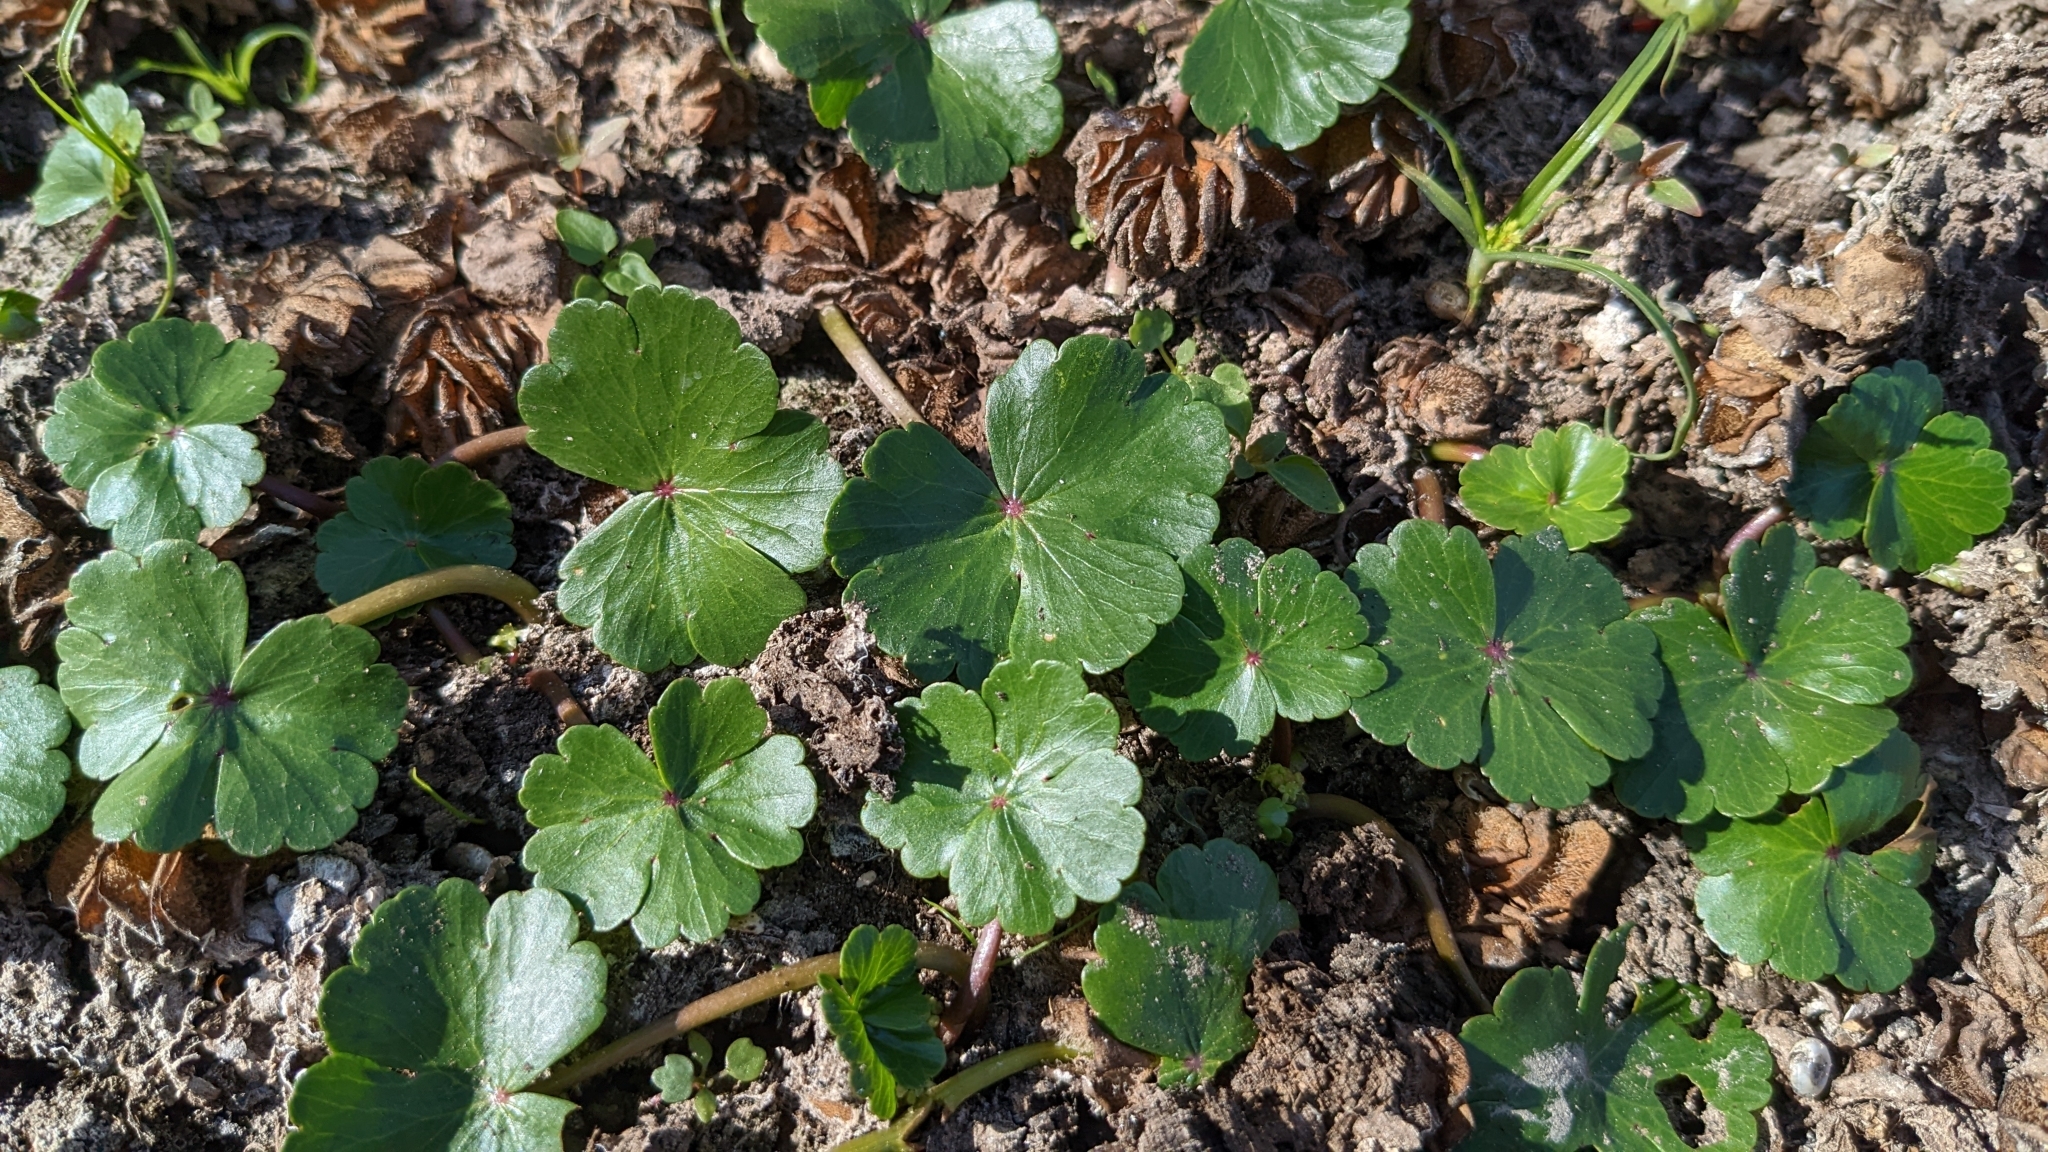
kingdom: Plantae
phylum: Tracheophyta
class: Magnoliopsida
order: Apiales
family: Araliaceae
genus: Hydrocotyle
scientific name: Hydrocotyle ranunculoides
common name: Floating pennywort
